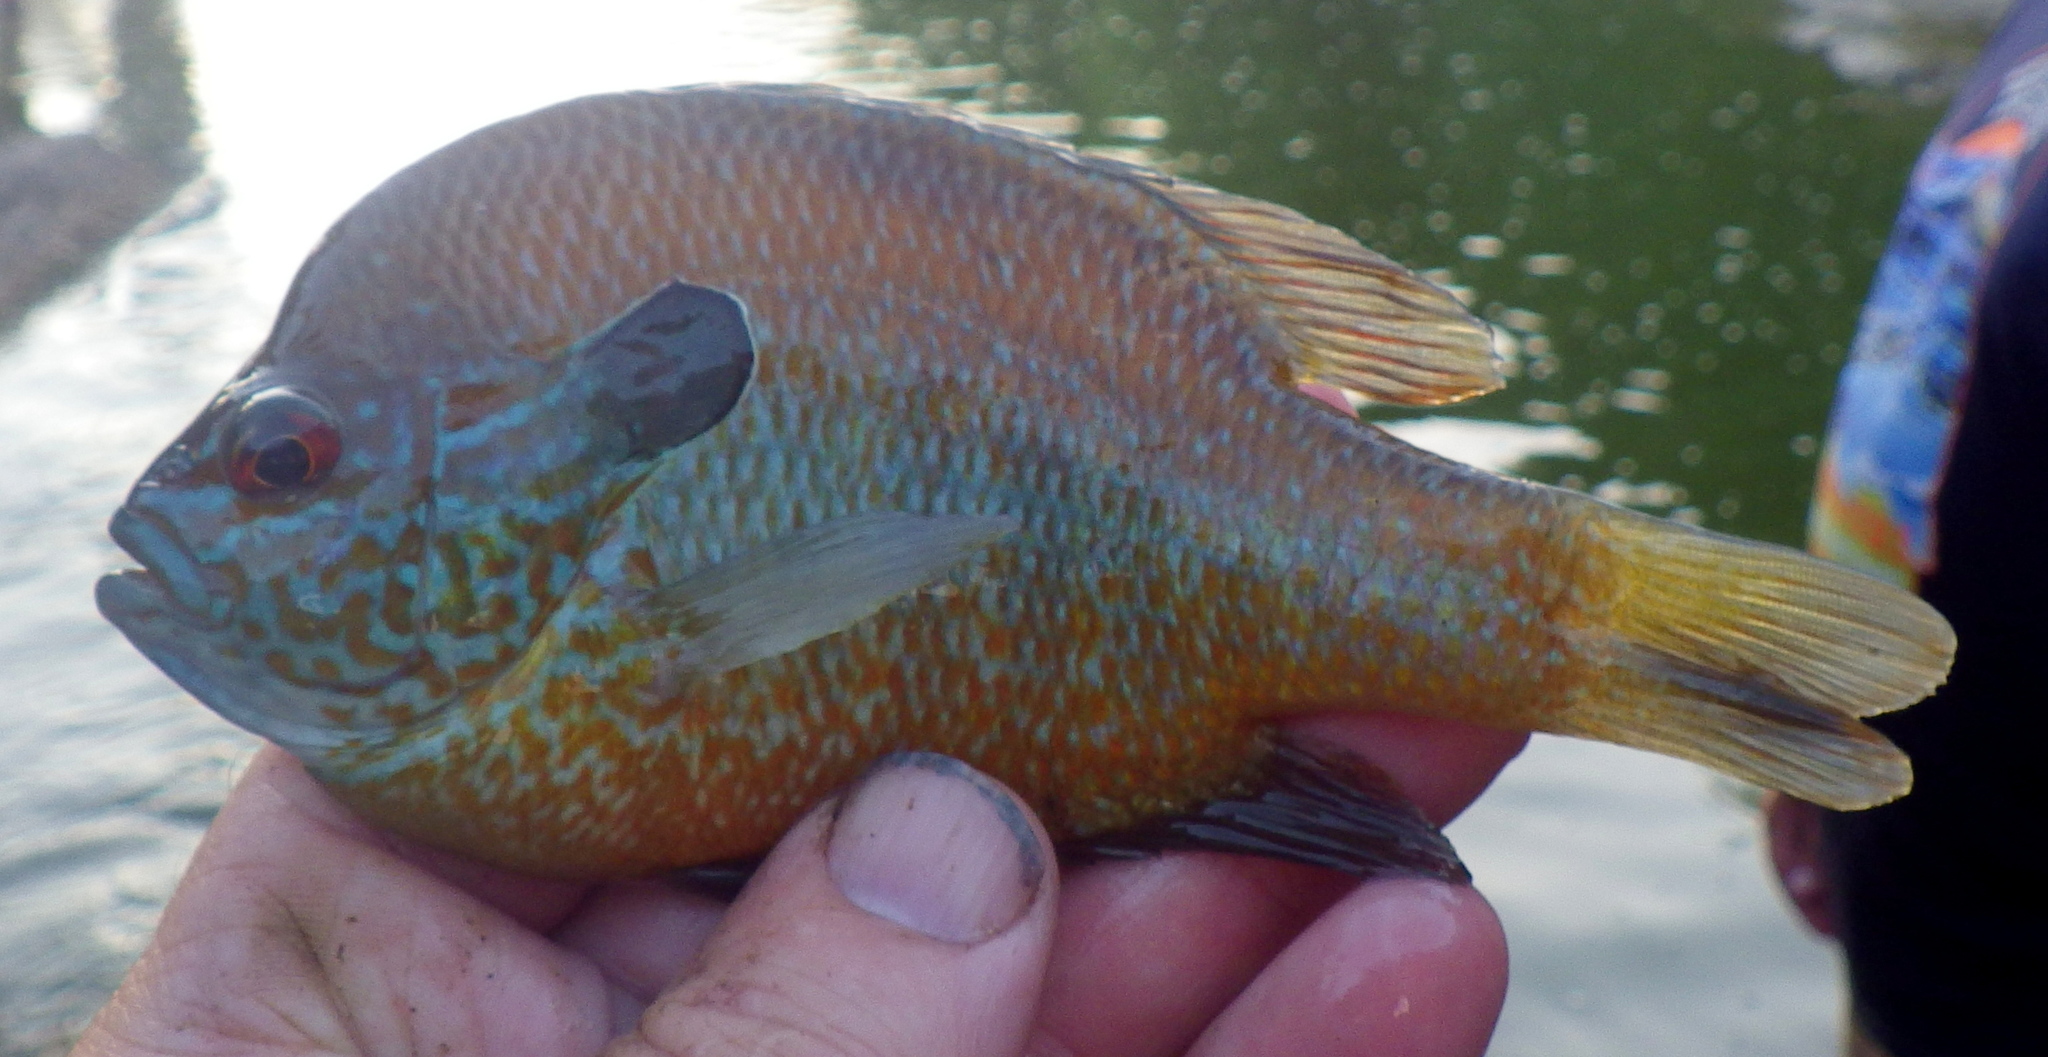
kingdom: Animalia
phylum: Chordata
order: Perciformes
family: Centrarchidae
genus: Lepomis
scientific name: Lepomis megalotis
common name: Longear sunfish
